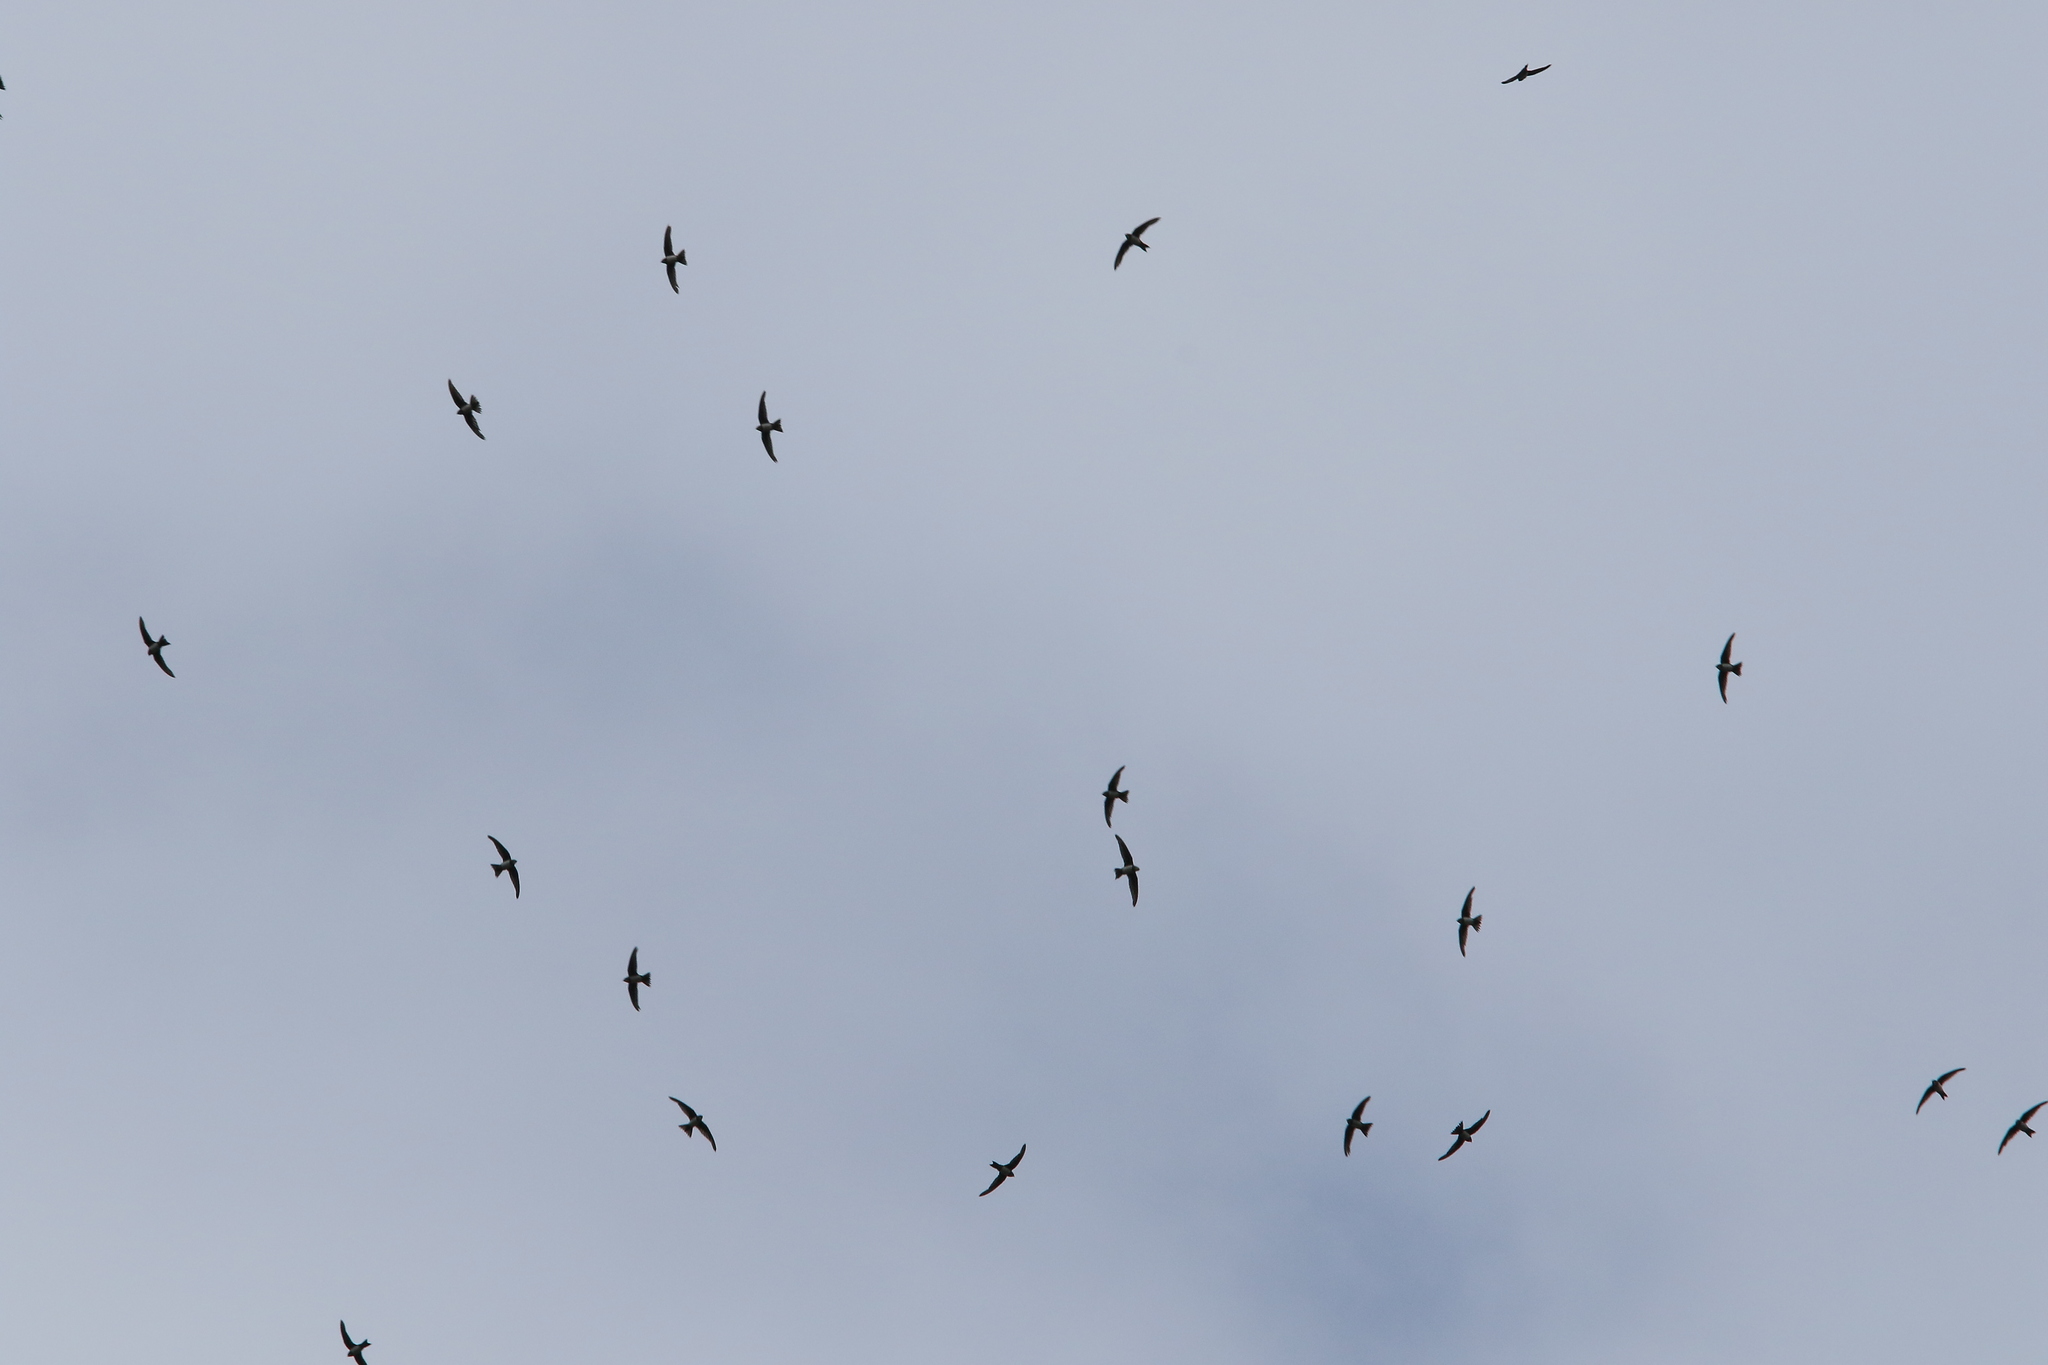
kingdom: Animalia
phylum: Chordata
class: Aves
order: Apodiformes
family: Apodidae
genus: Tachymarptis
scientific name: Tachymarptis melba
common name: Alpine swift
